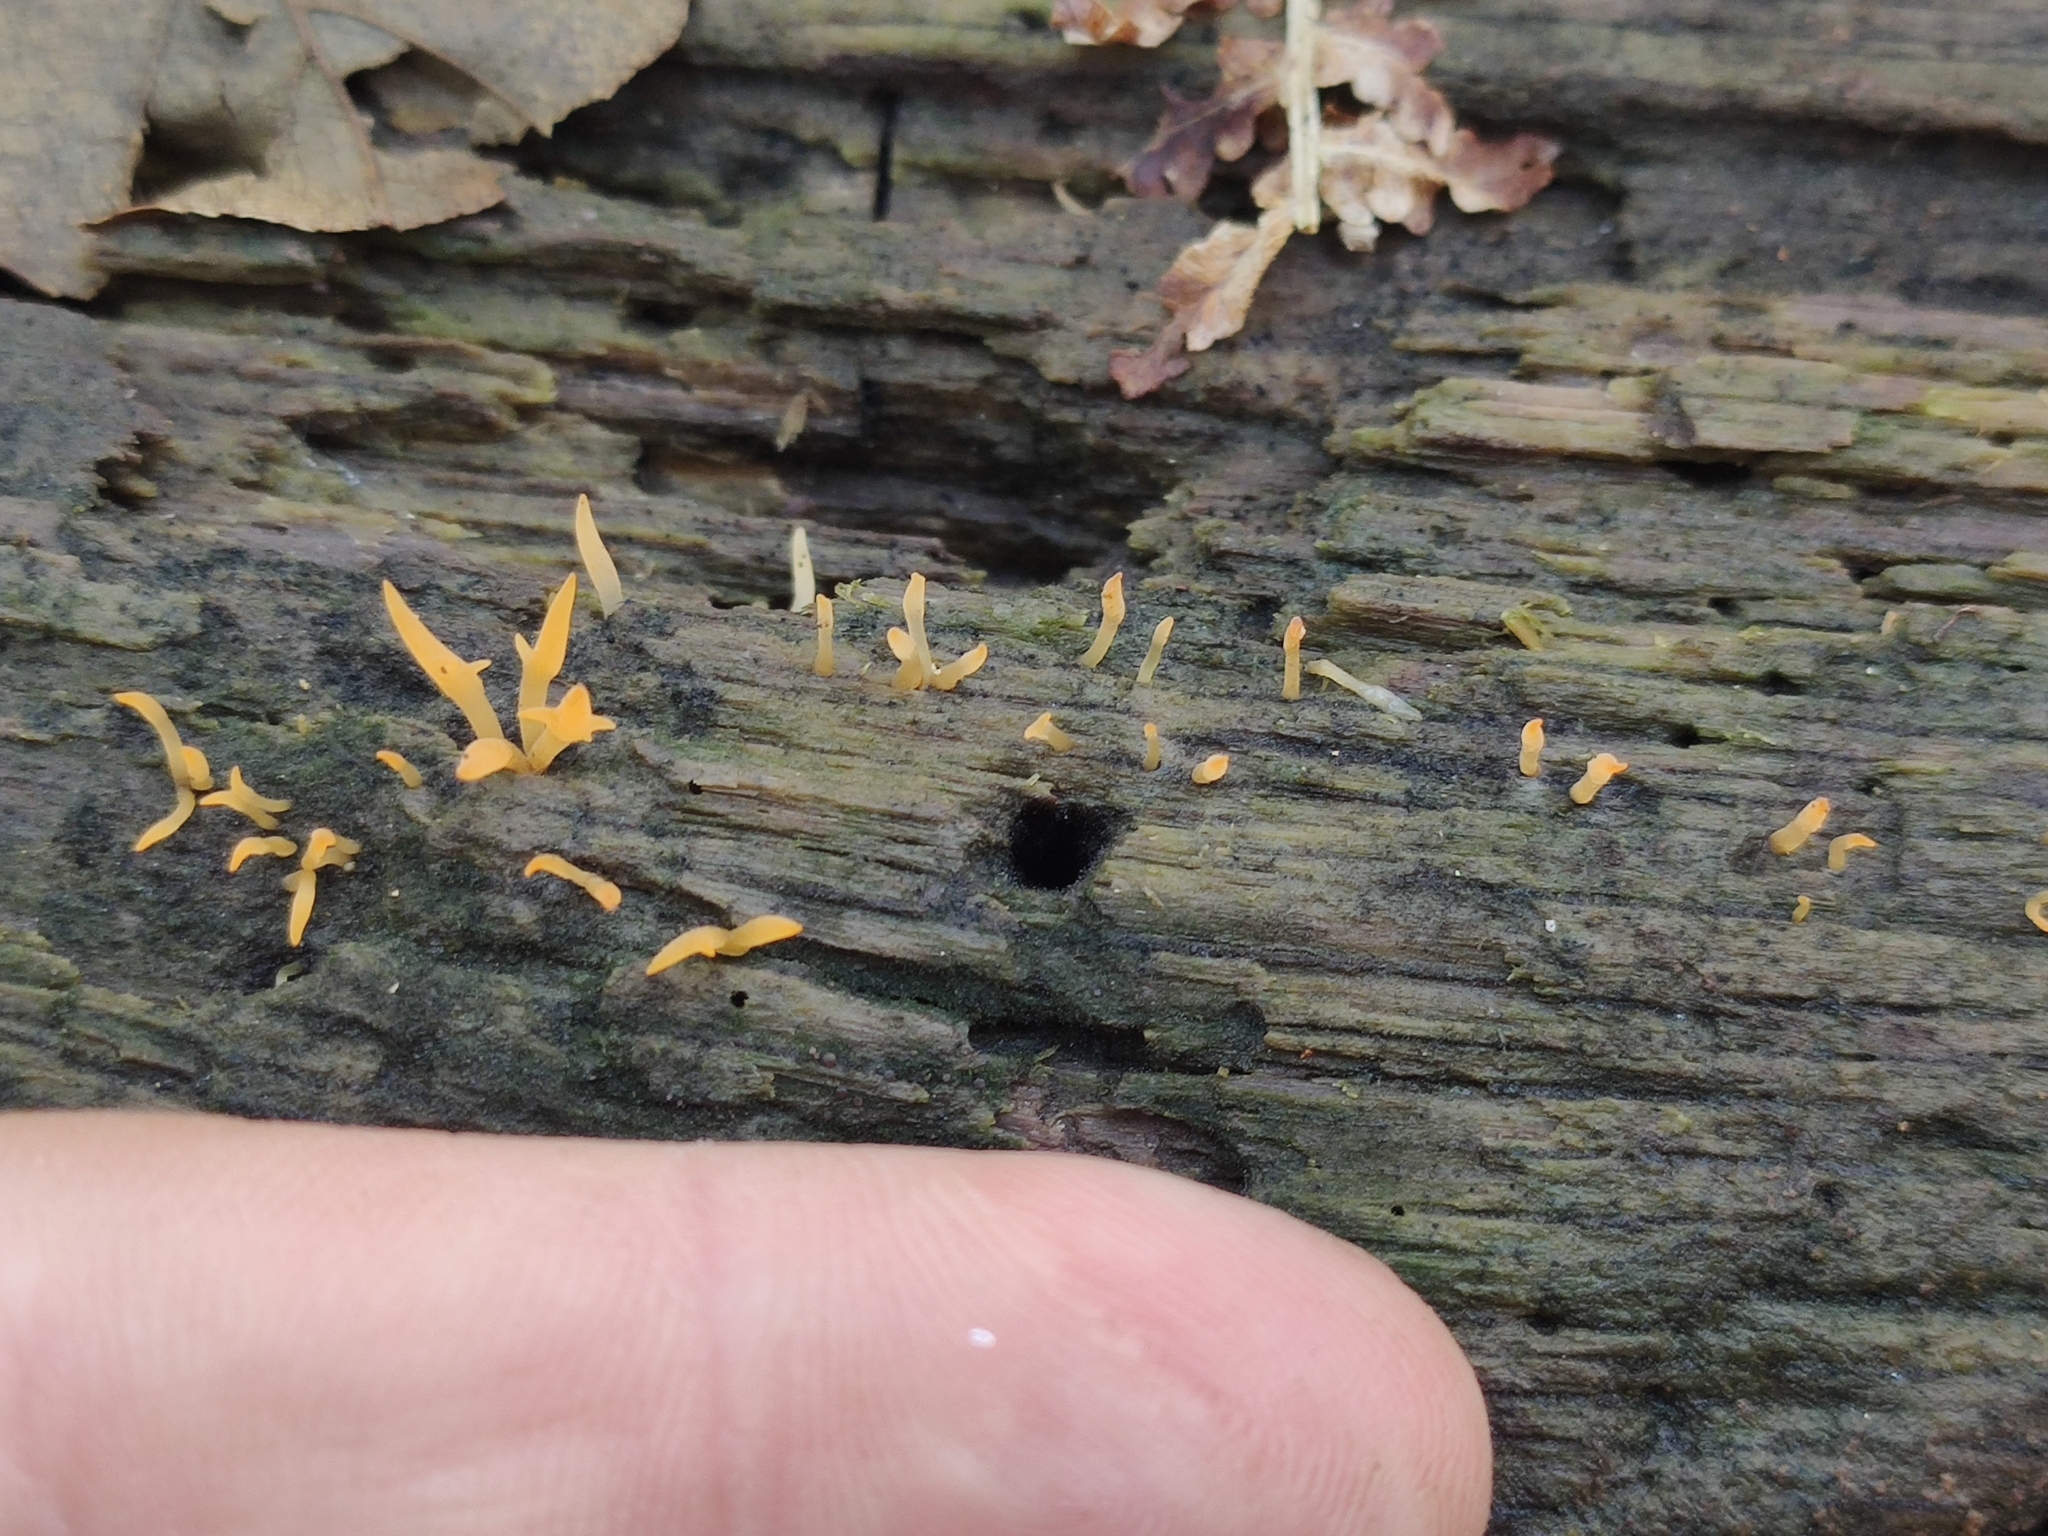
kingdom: Fungi
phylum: Basidiomycota
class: Dacrymycetes
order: Dacrymycetales
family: Dacrymycetaceae
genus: Calocera
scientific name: Calocera cornea
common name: Small stagshorn
